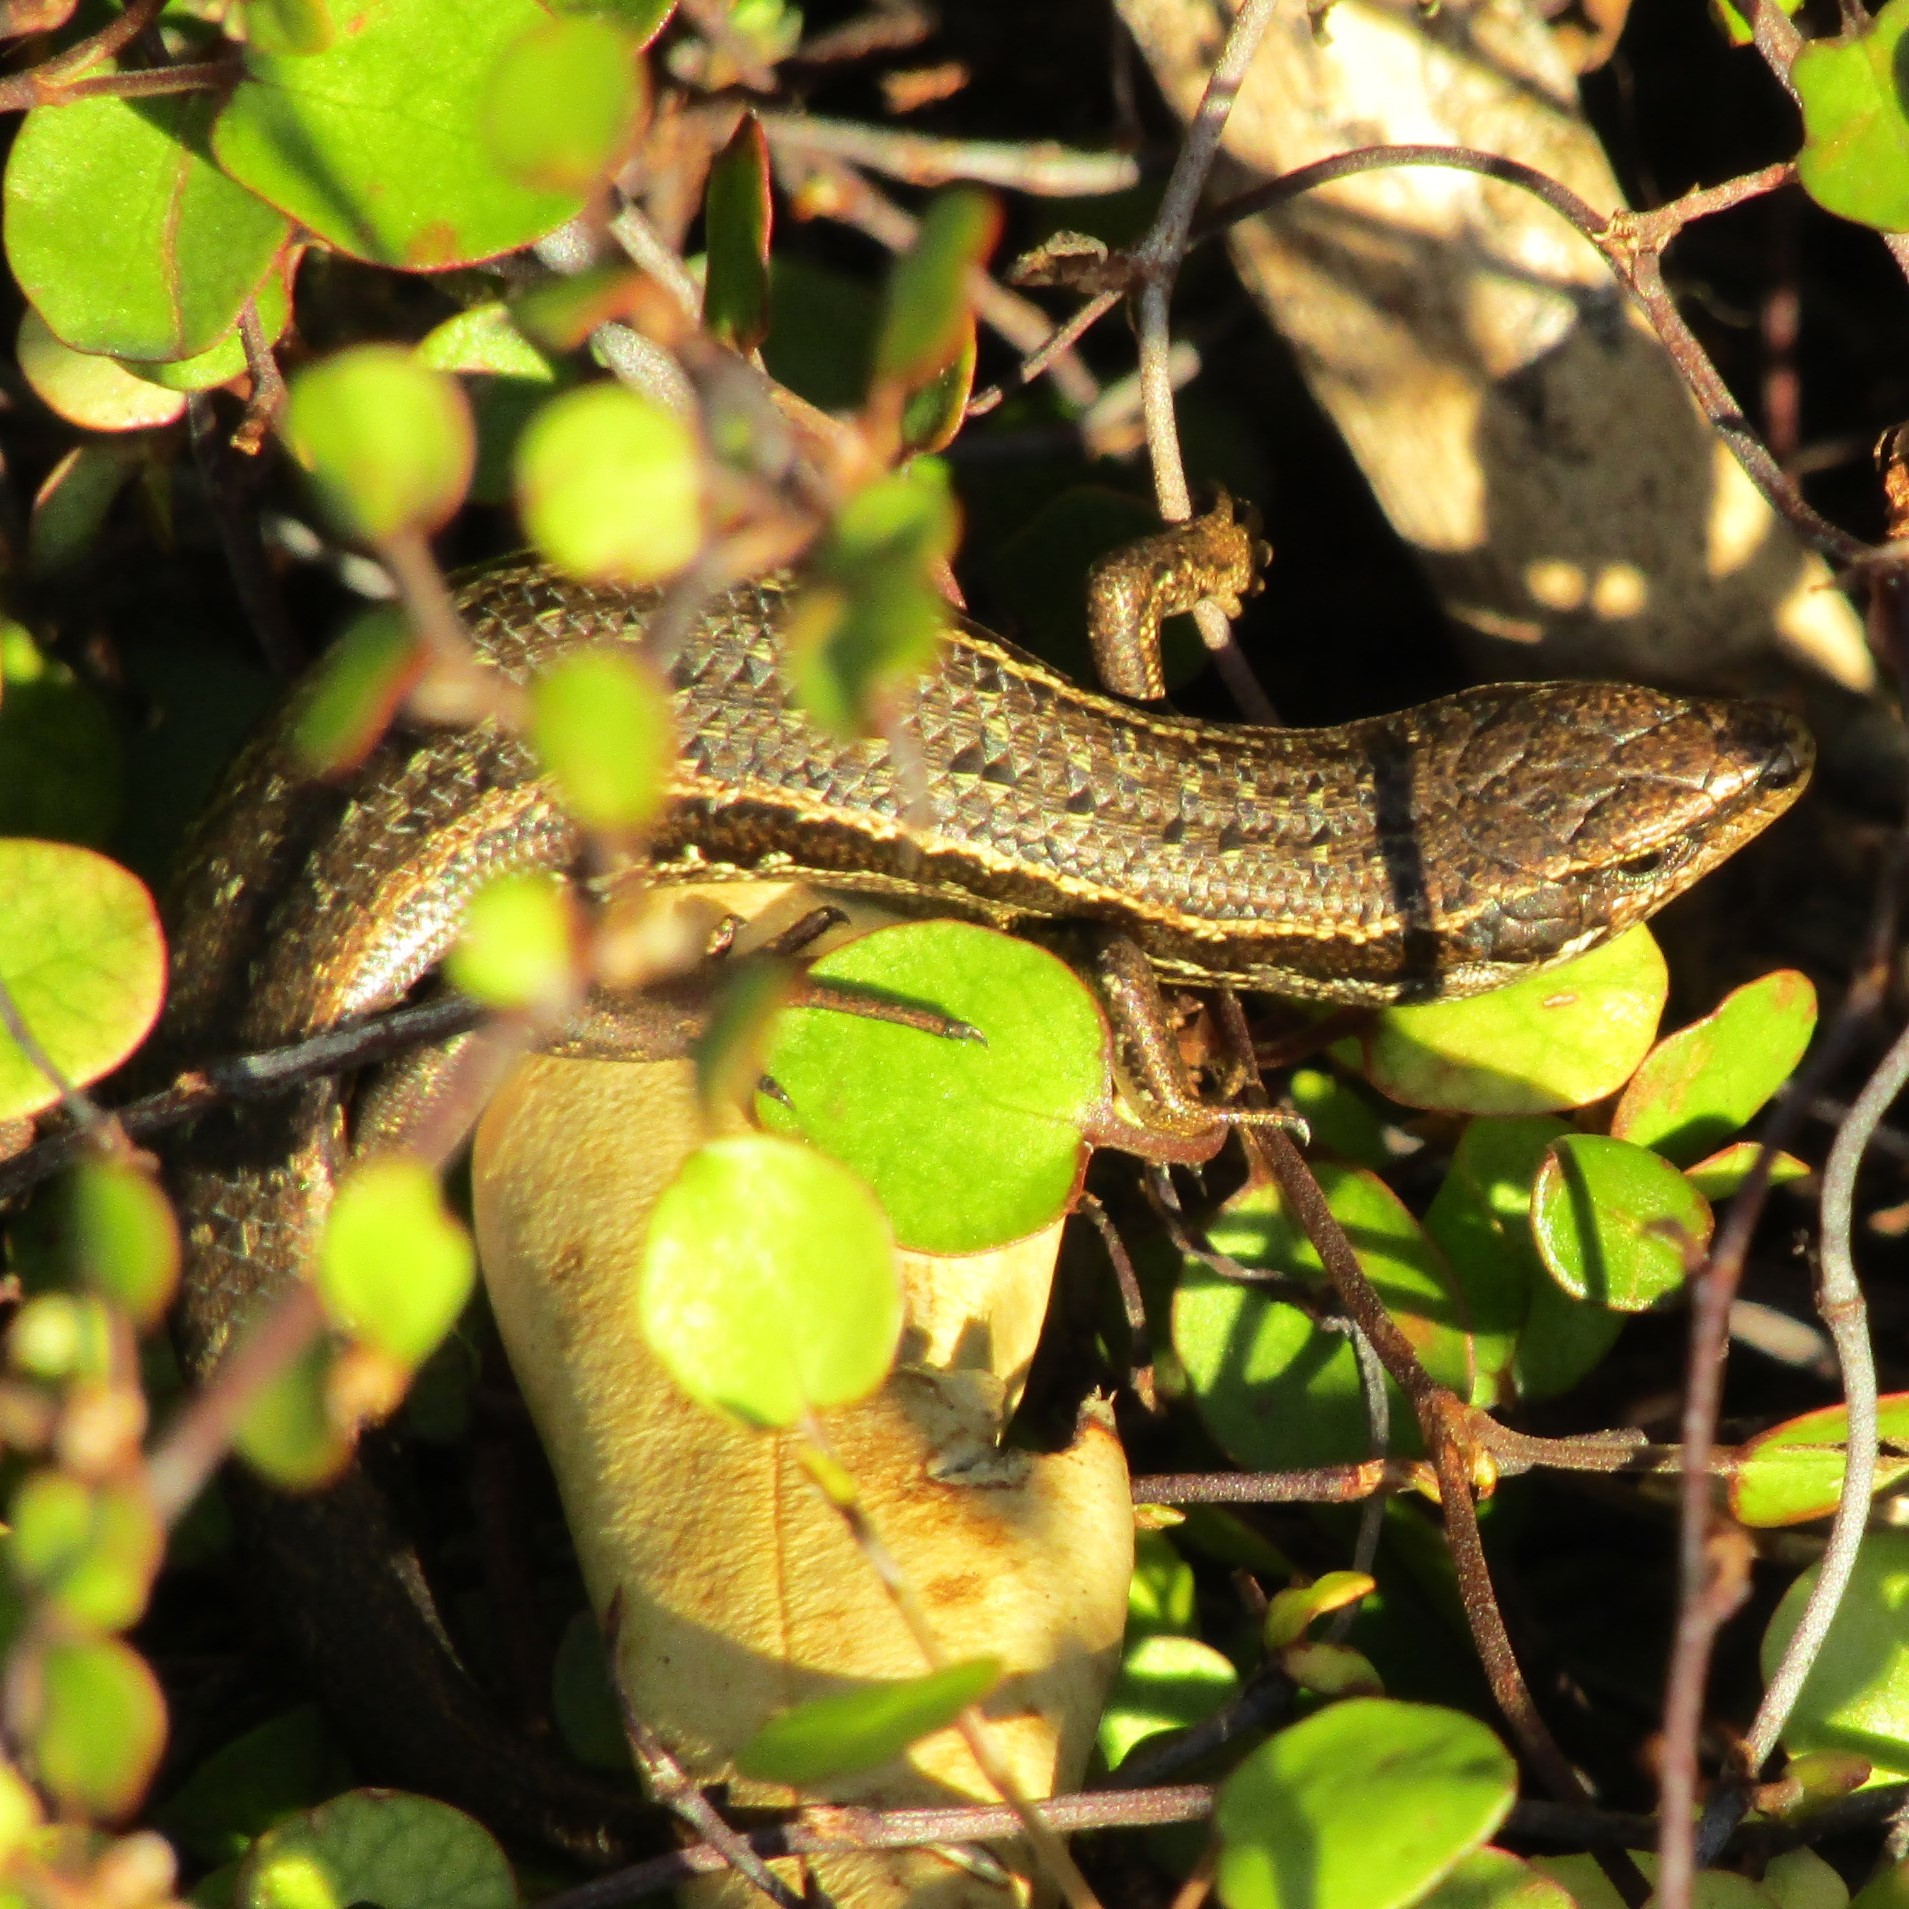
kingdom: Animalia
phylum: Chordata
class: Squamata
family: Scincidae
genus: Oligosoma
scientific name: Oligosoma polychroma
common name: Common new zealand skink
